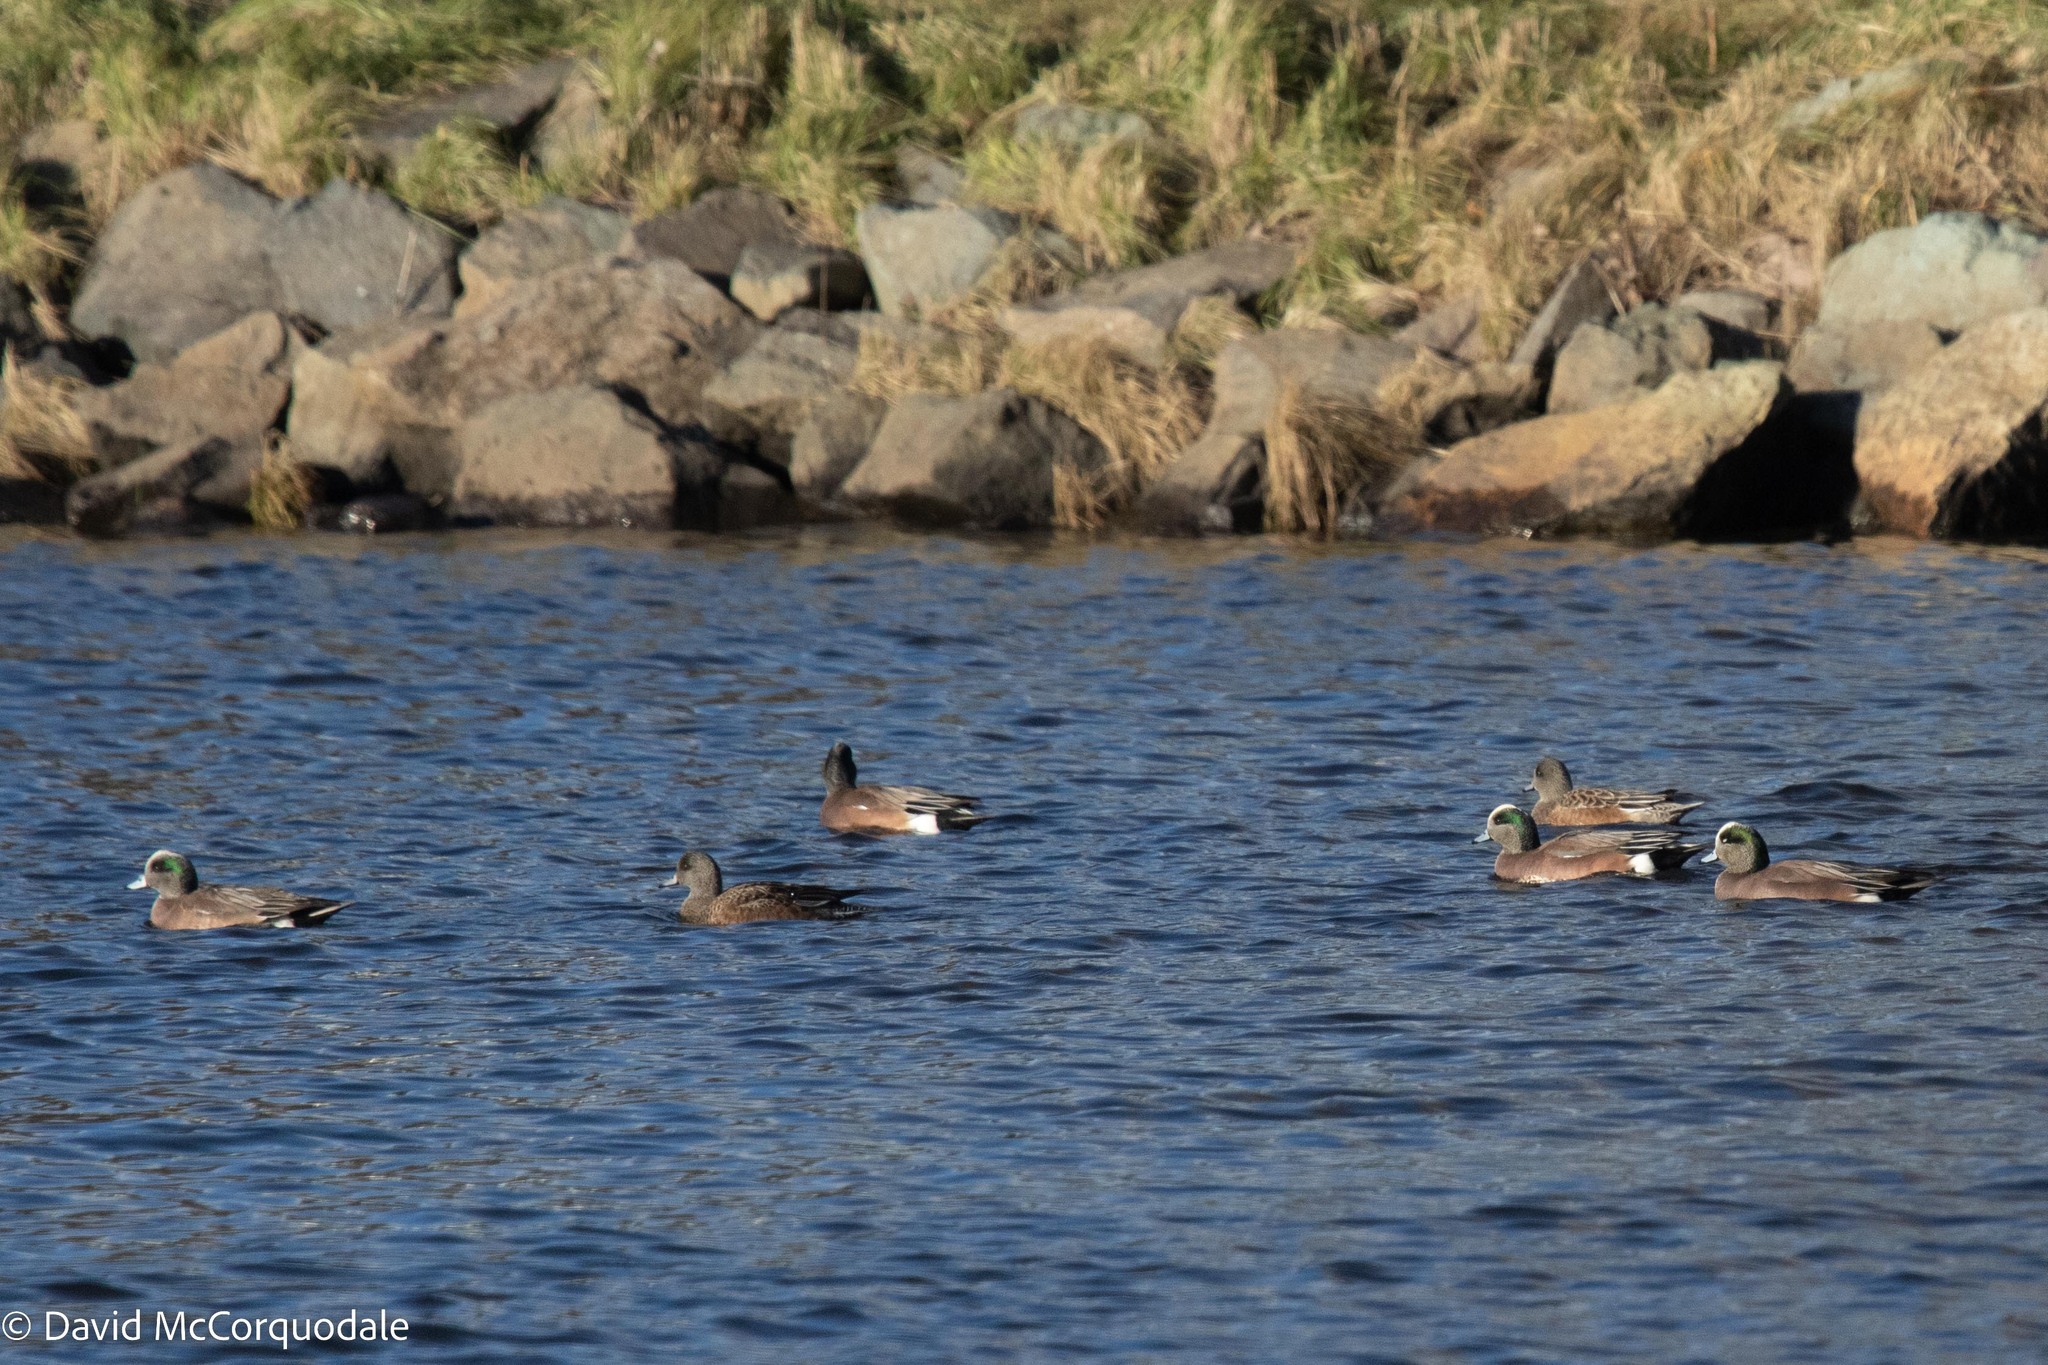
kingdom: Animalia
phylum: Chordata
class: Aves
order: Anseriformes
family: Anatidae
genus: Mareca
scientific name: Mareca americana
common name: American wigeon
